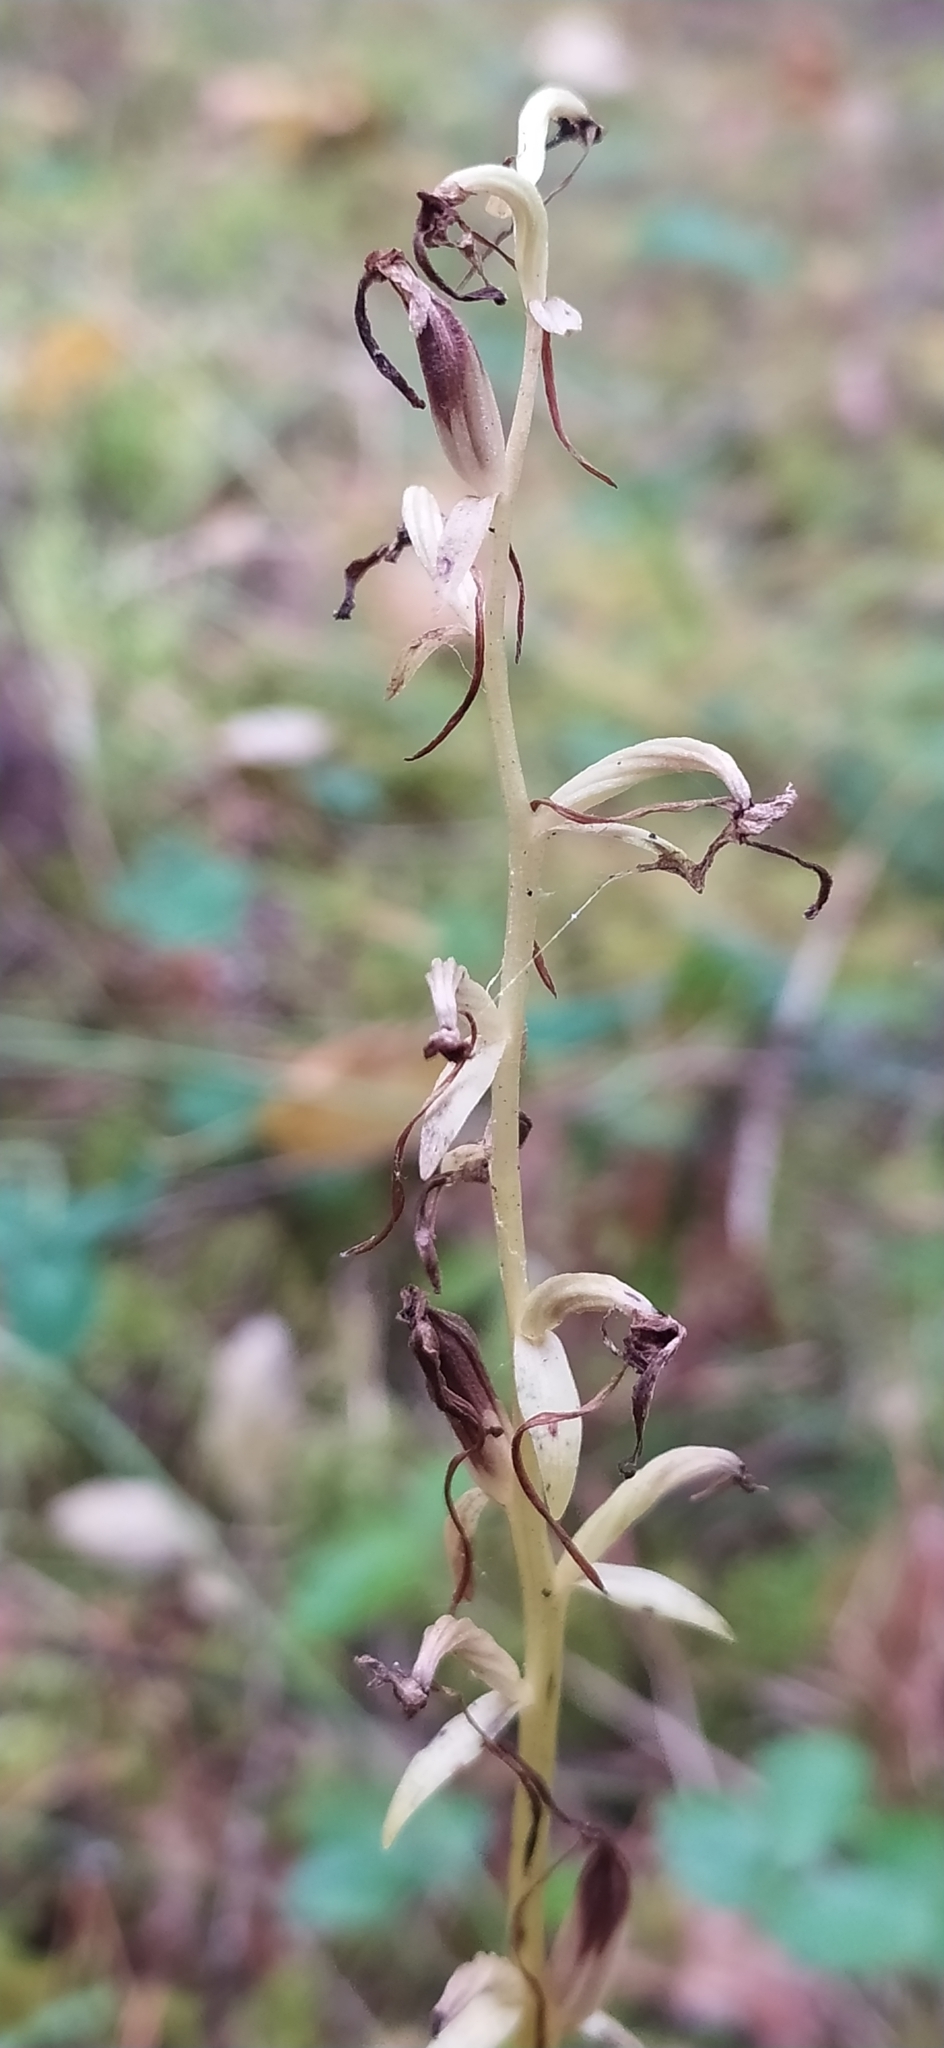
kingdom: Plantae
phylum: Tracheophyta
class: Liliopsida
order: Asparagales
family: Orchidaceae
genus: Platanthera
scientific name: Platanthera bifolia
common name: Lesser butterfly-orchid
